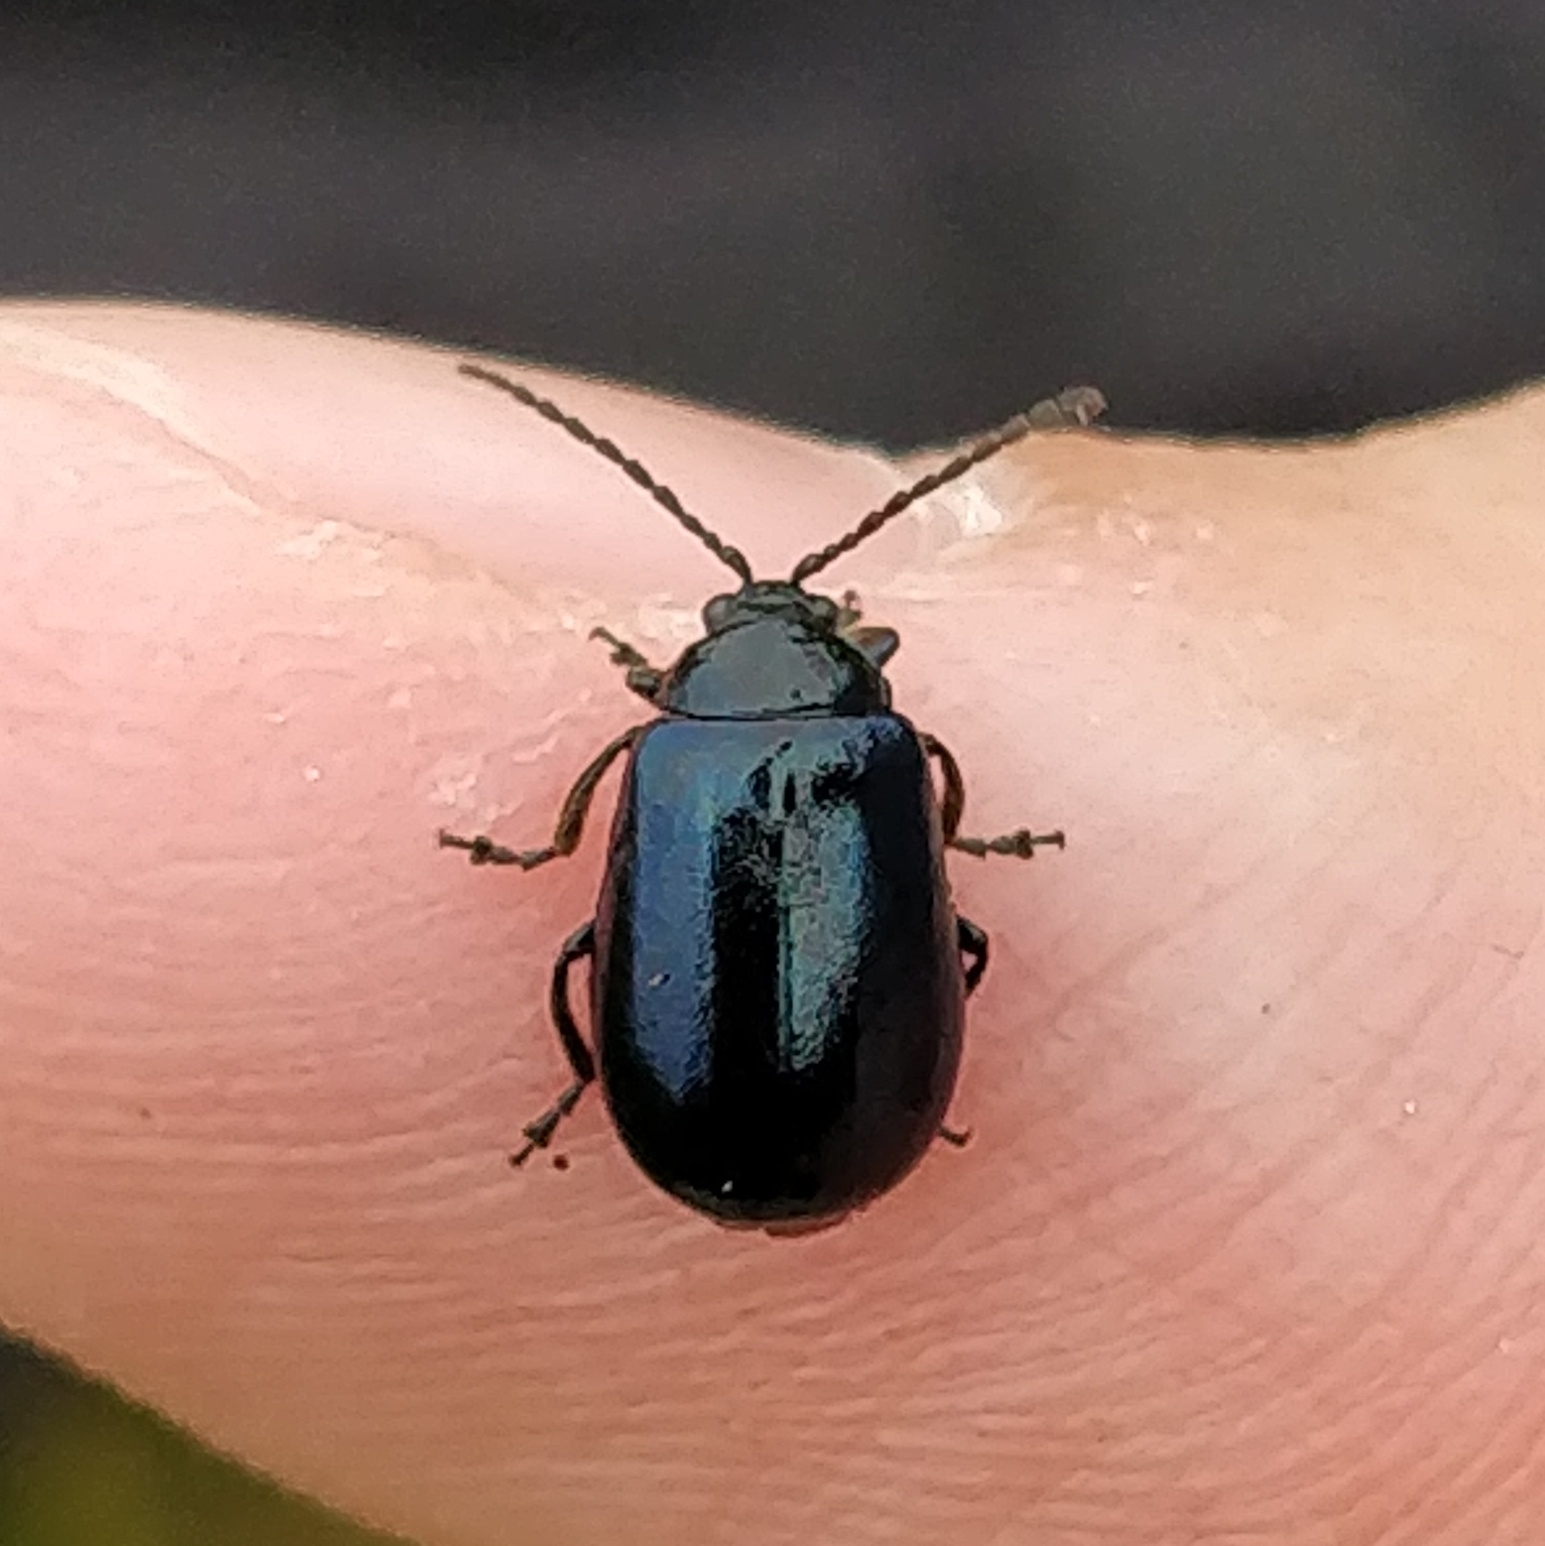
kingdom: Animalia
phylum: Arthropoda
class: Insecta
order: Coleoptera
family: Chrysomelidae
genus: Agelastica
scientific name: Agelastica alni
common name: Alder leaf beetle
